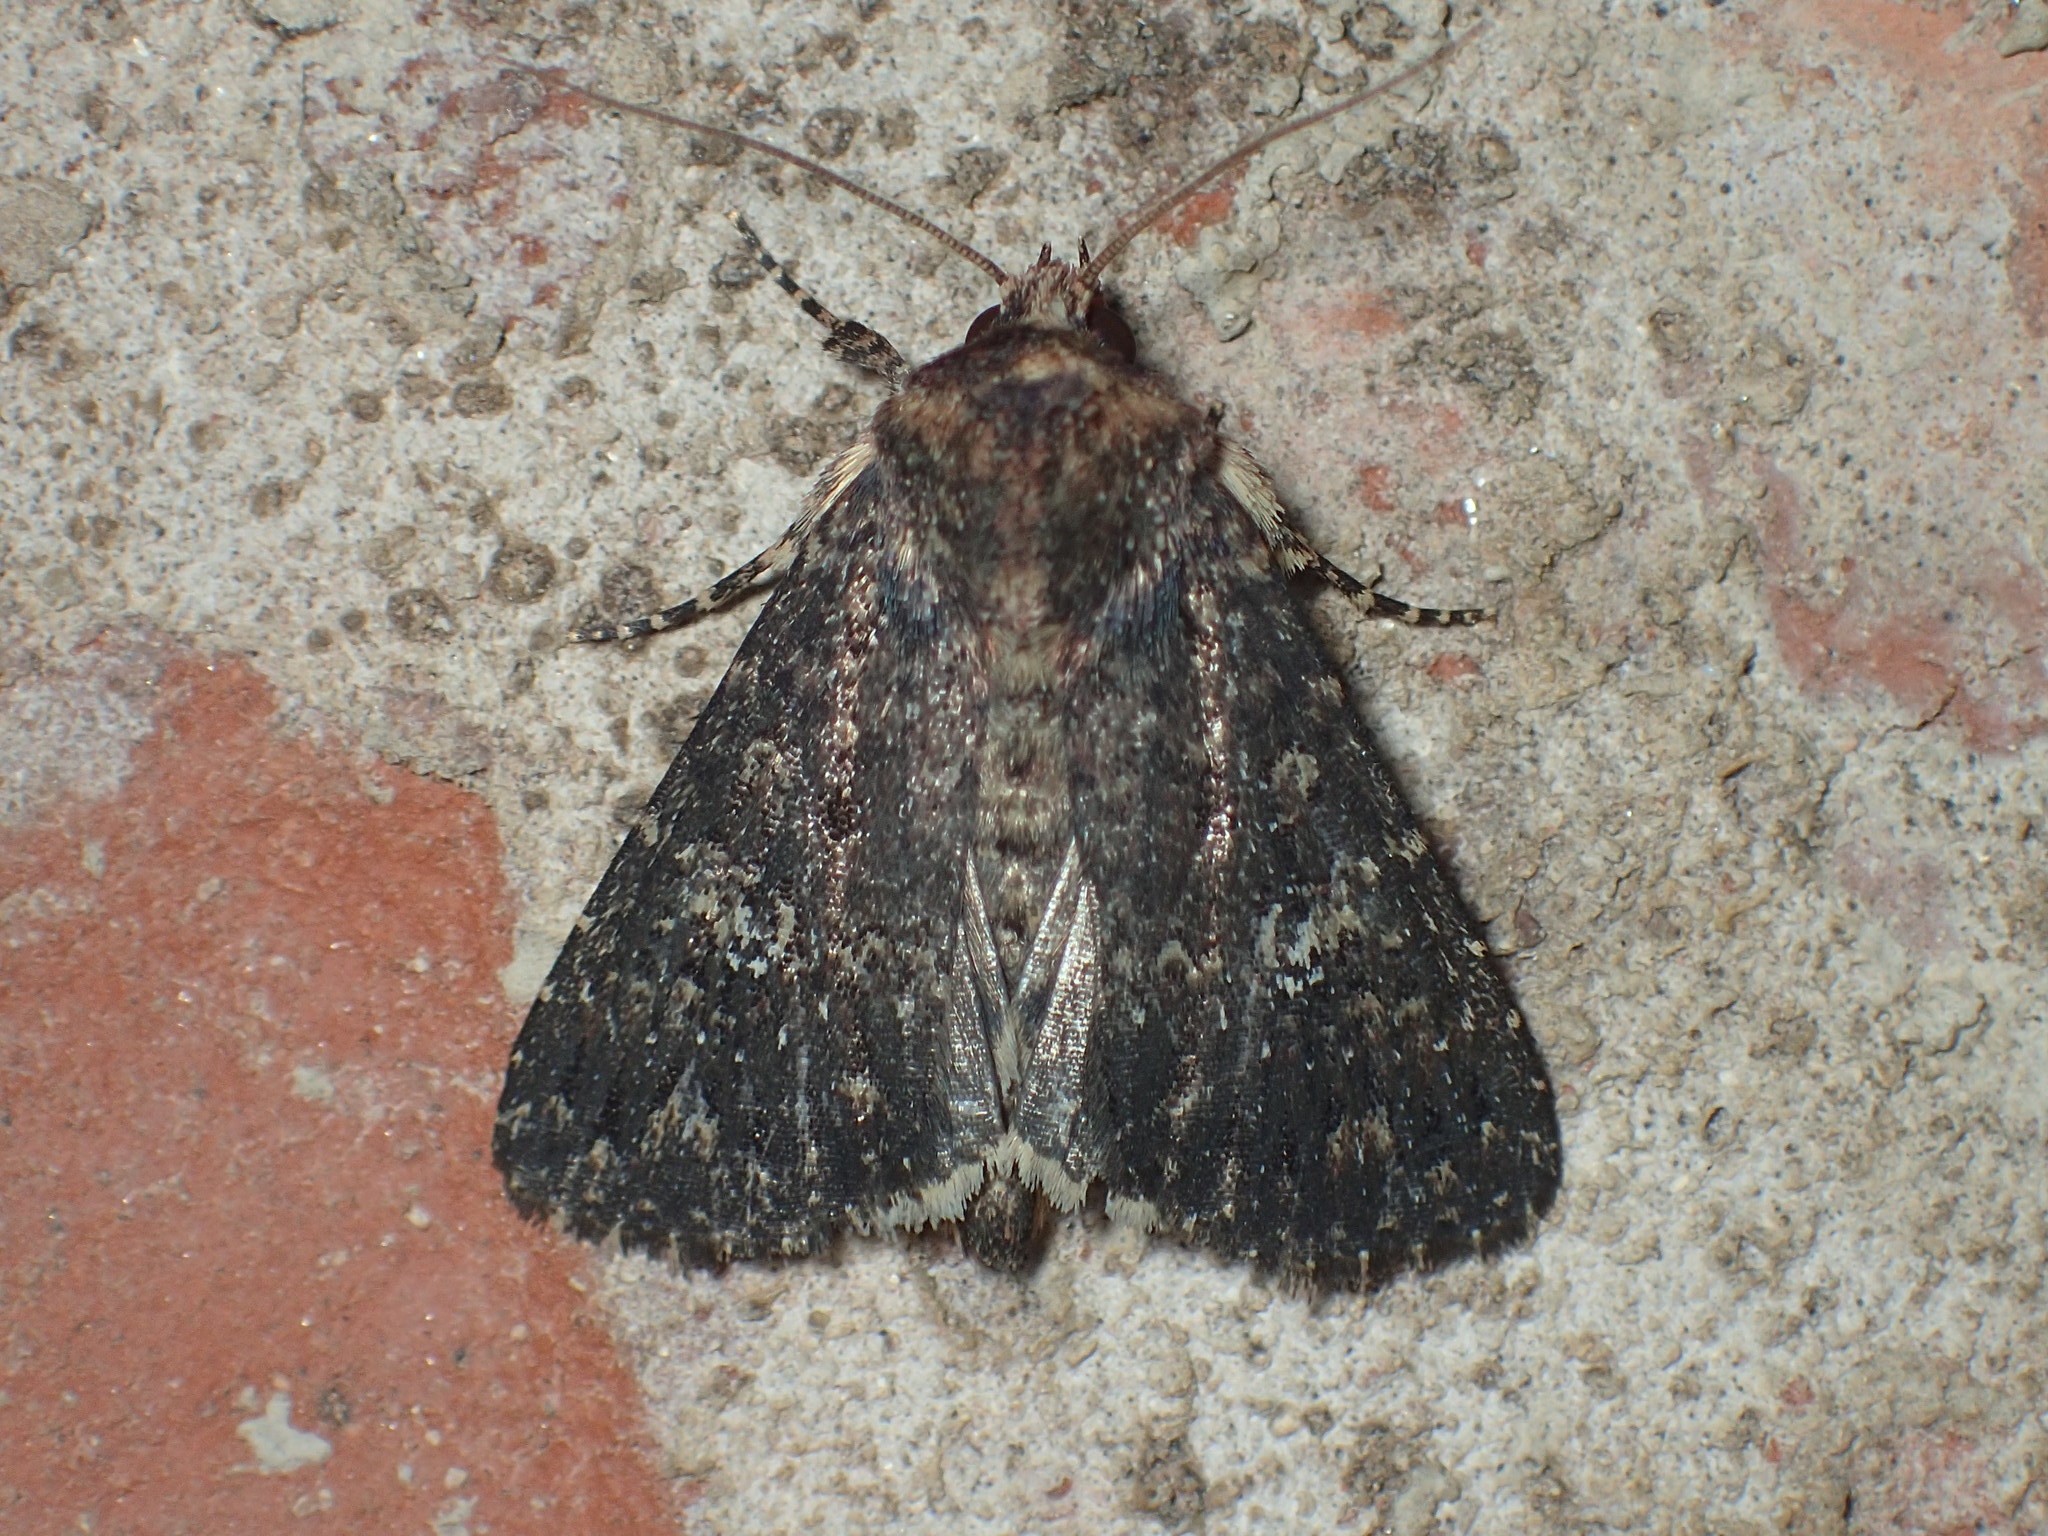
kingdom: Animalia
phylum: Arthropoda
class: Insecta
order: Lepidoptera
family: Noctuidae
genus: Condica
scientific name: Condica vecors
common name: Dusky groundling
